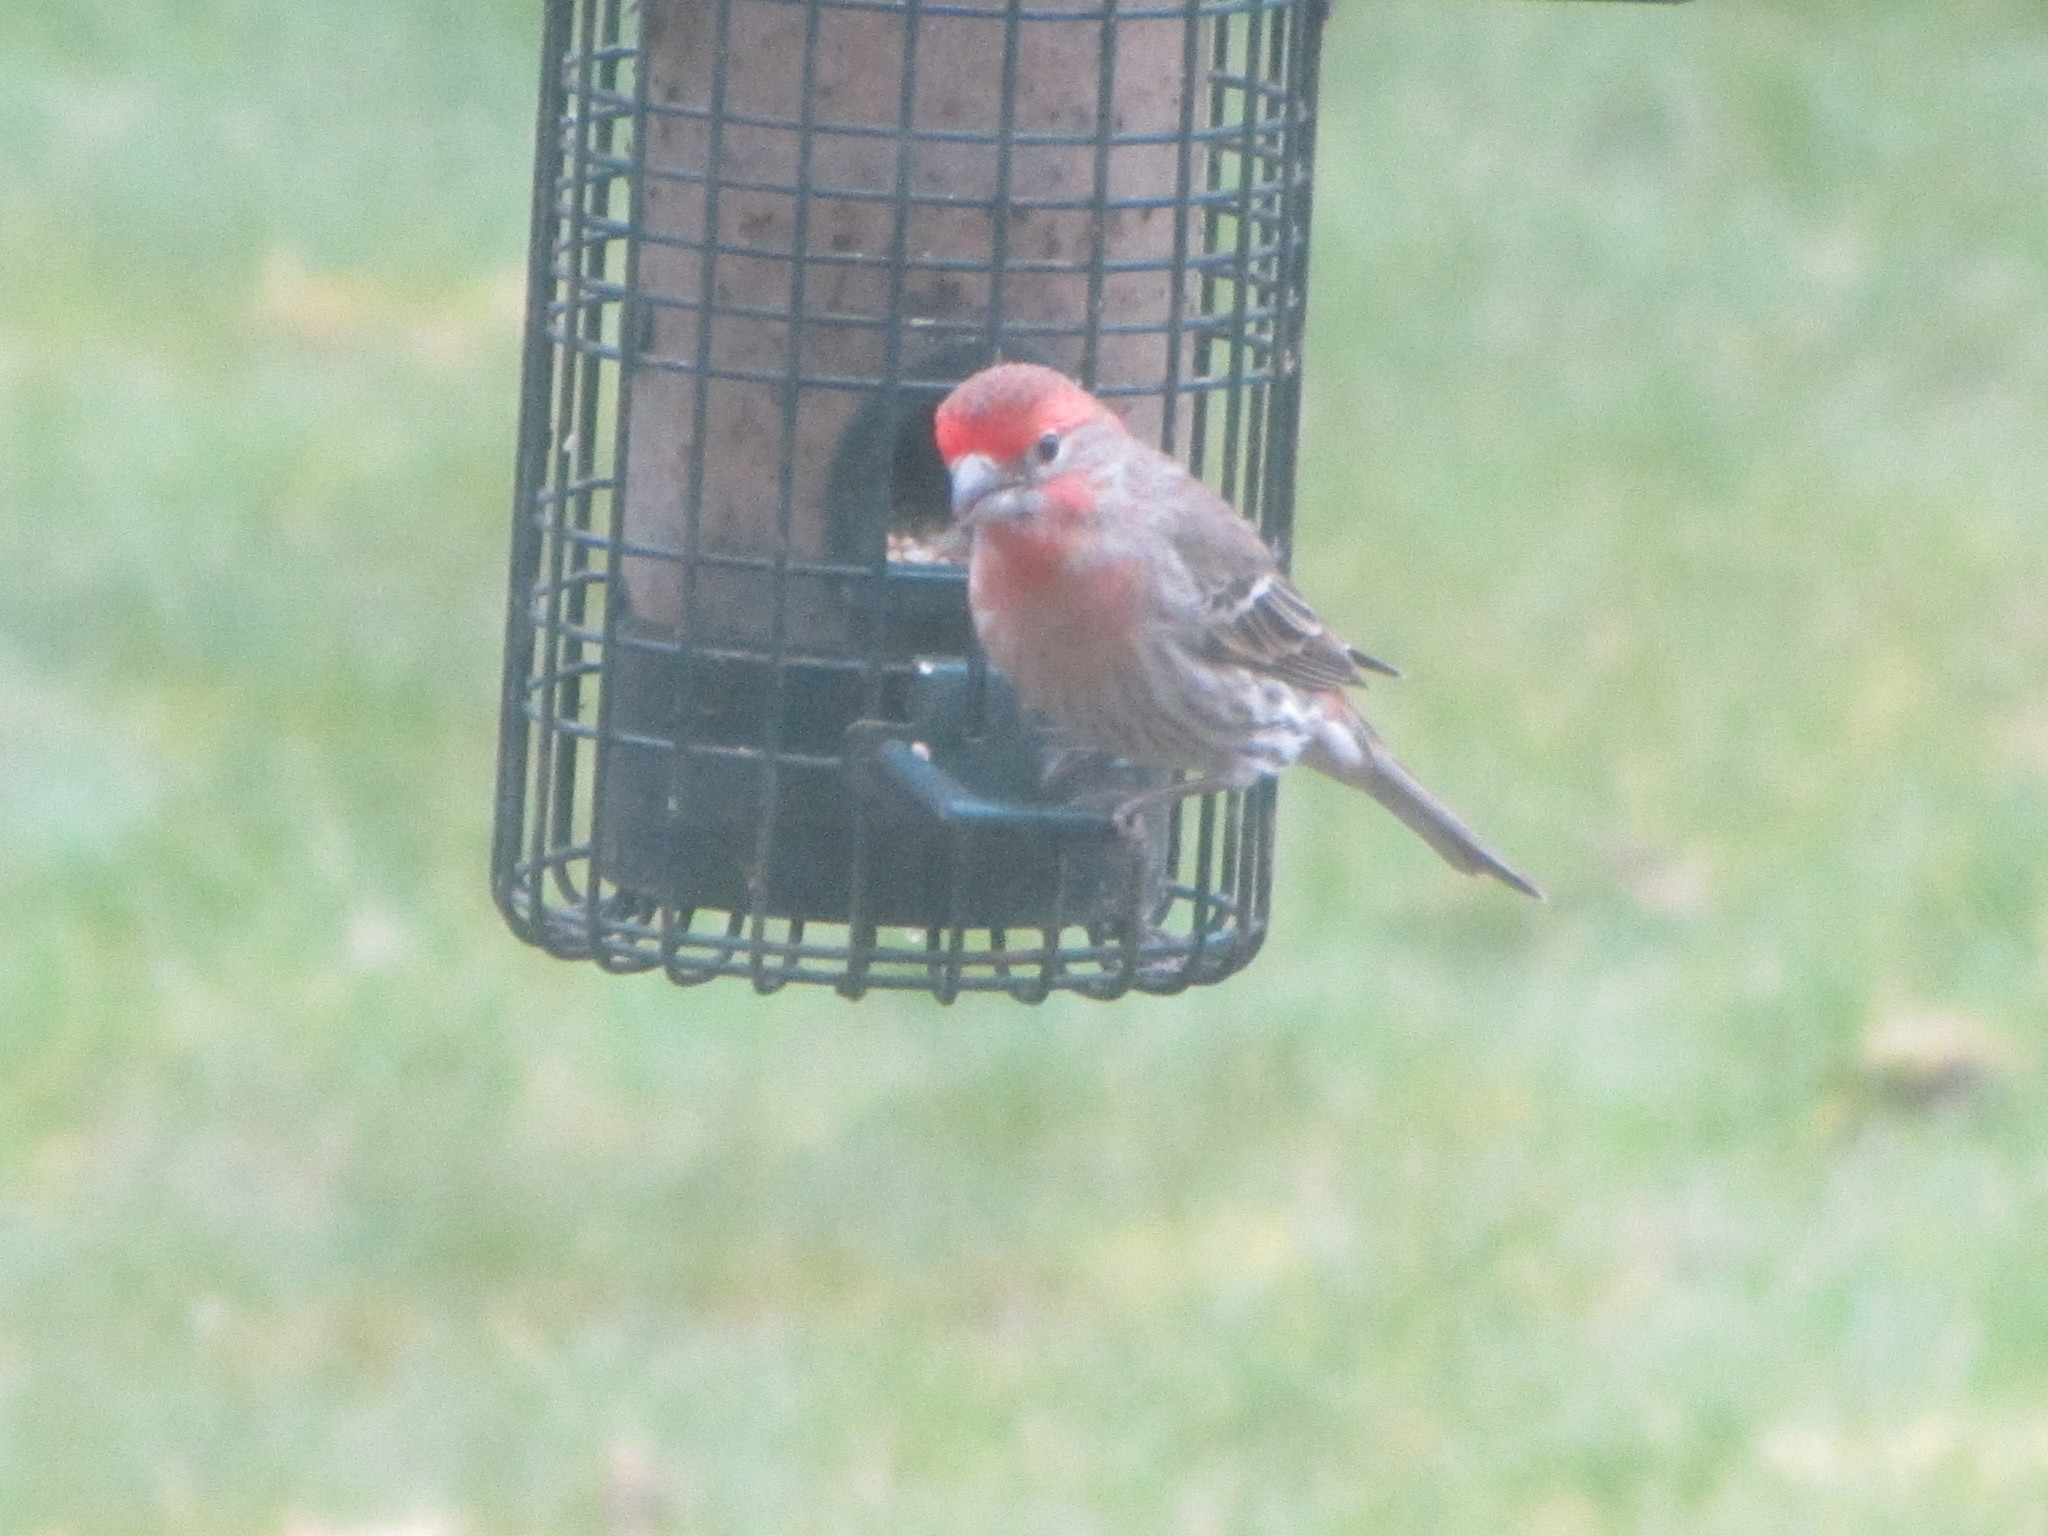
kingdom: Animalia
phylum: Chordata
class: Aves
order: Passeriformes
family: Fringillidae
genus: Haemorhous
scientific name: Haemorhous mexicanus
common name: House finch
